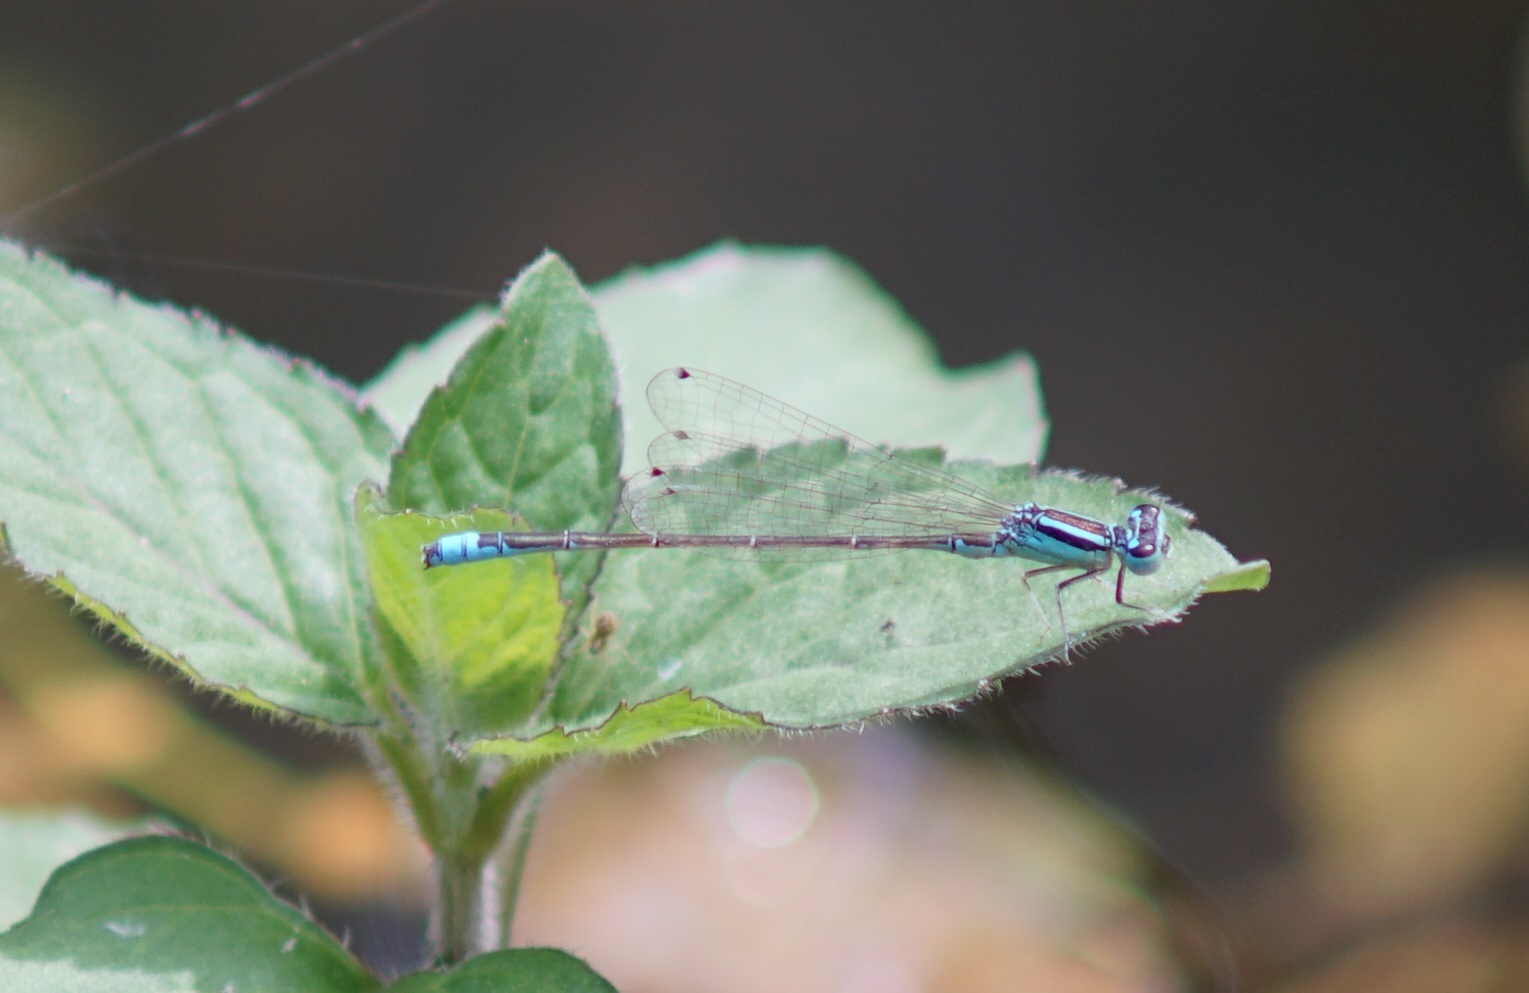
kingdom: Animalia
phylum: Arthropoda
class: Insecta
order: Odonata
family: Coenagrionidae
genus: Ischnura
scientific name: Ischnura pumilio
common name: Scarce blue-tailed damselfly
